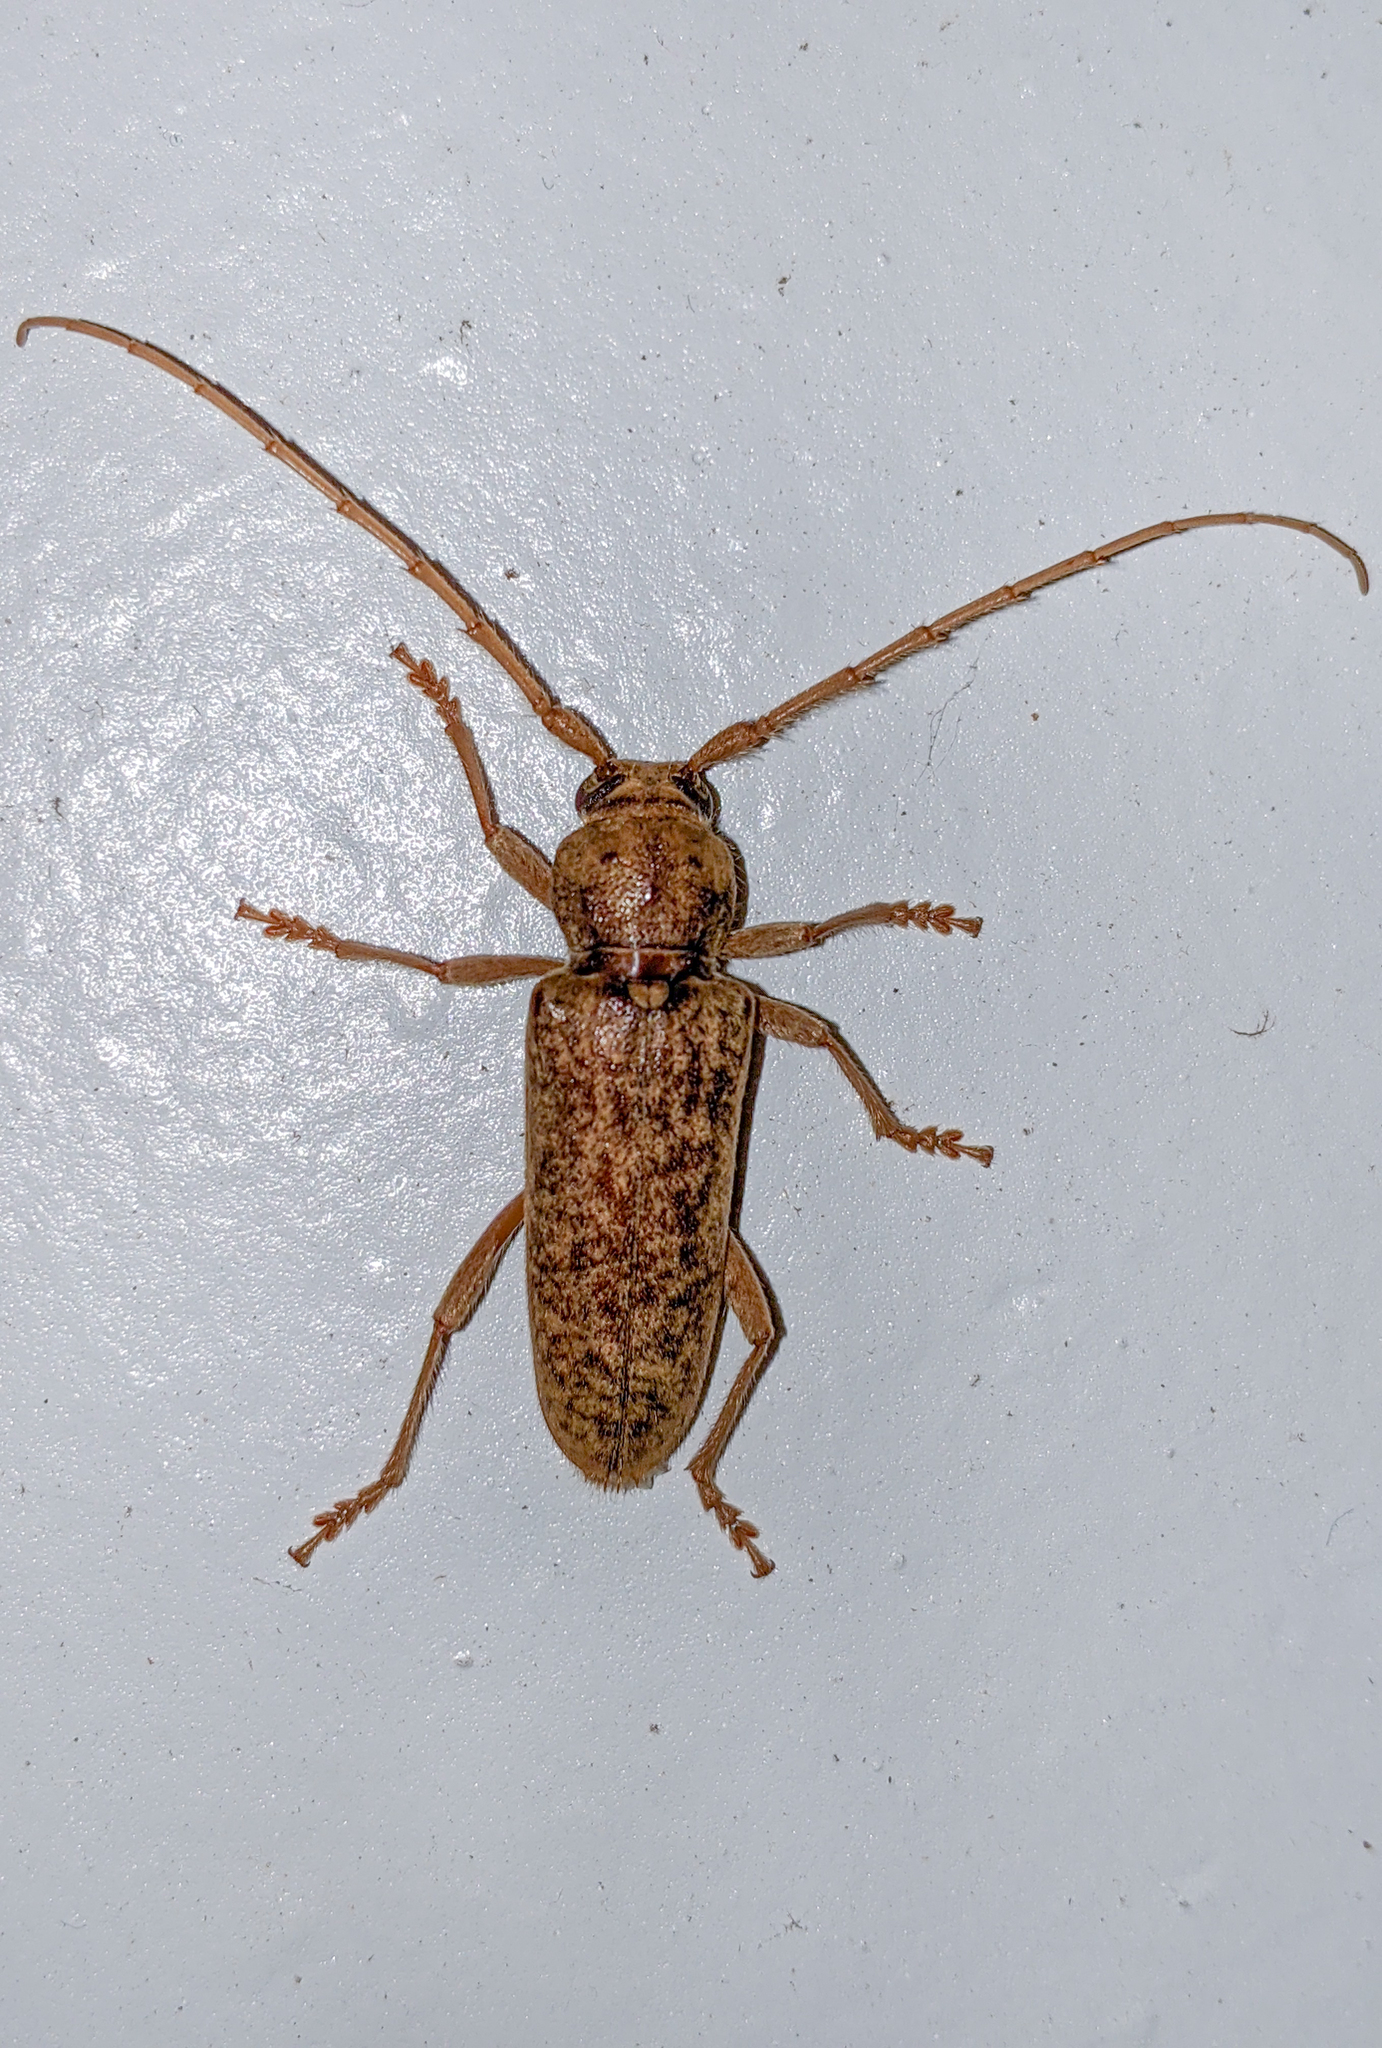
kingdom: Animalia
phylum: Arthropoda
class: Insecta
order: Coleoptera
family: Cerambycidae
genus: Enaphalodes
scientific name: Enaphalodes rufulus
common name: Red oak borer
